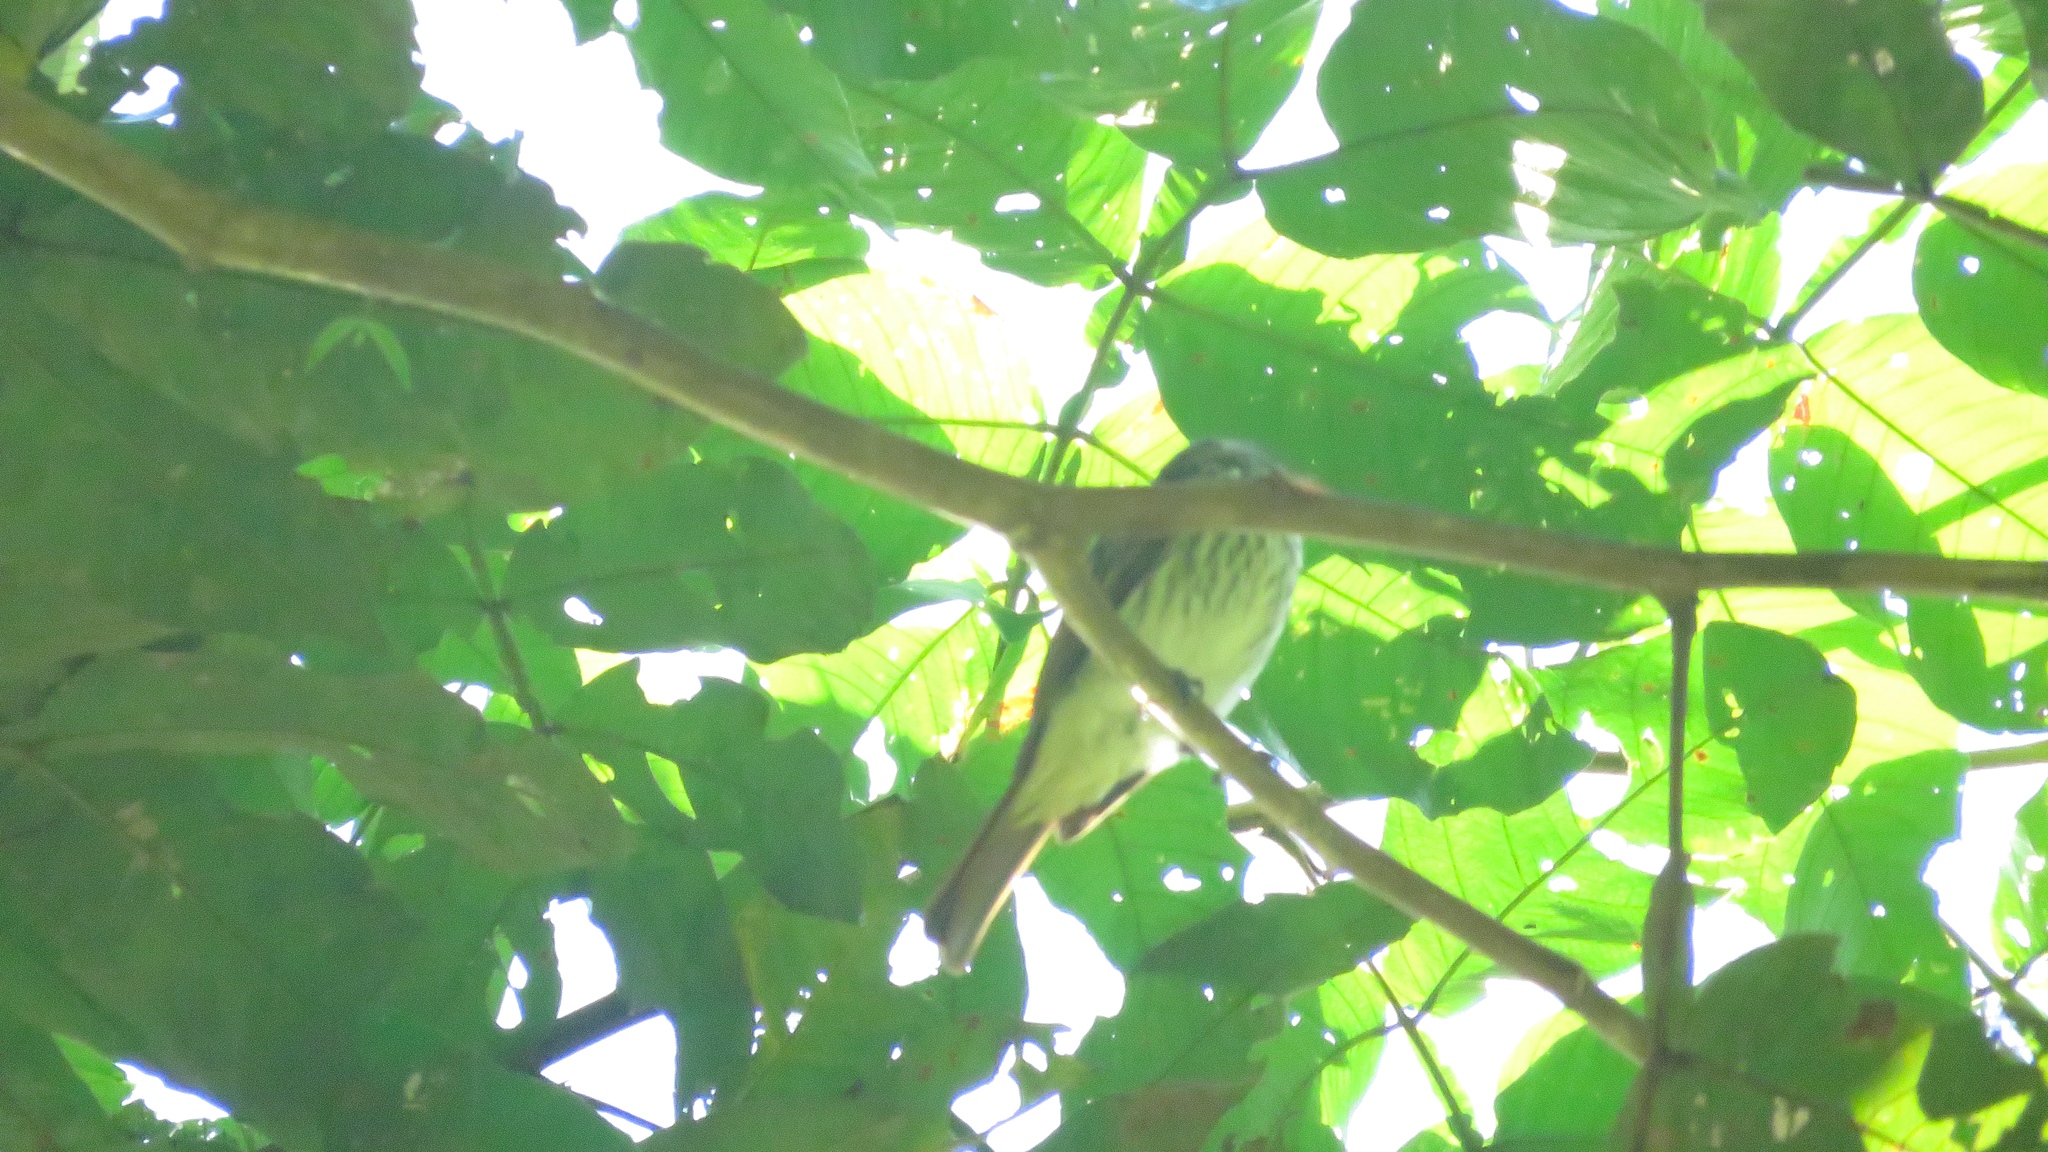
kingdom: Animalia
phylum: Chordata
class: Aves
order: Passeriformes
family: Tyrannidae
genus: Myiodynastes
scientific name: Myiodynastes maculatus
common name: Streaked flycatcher
